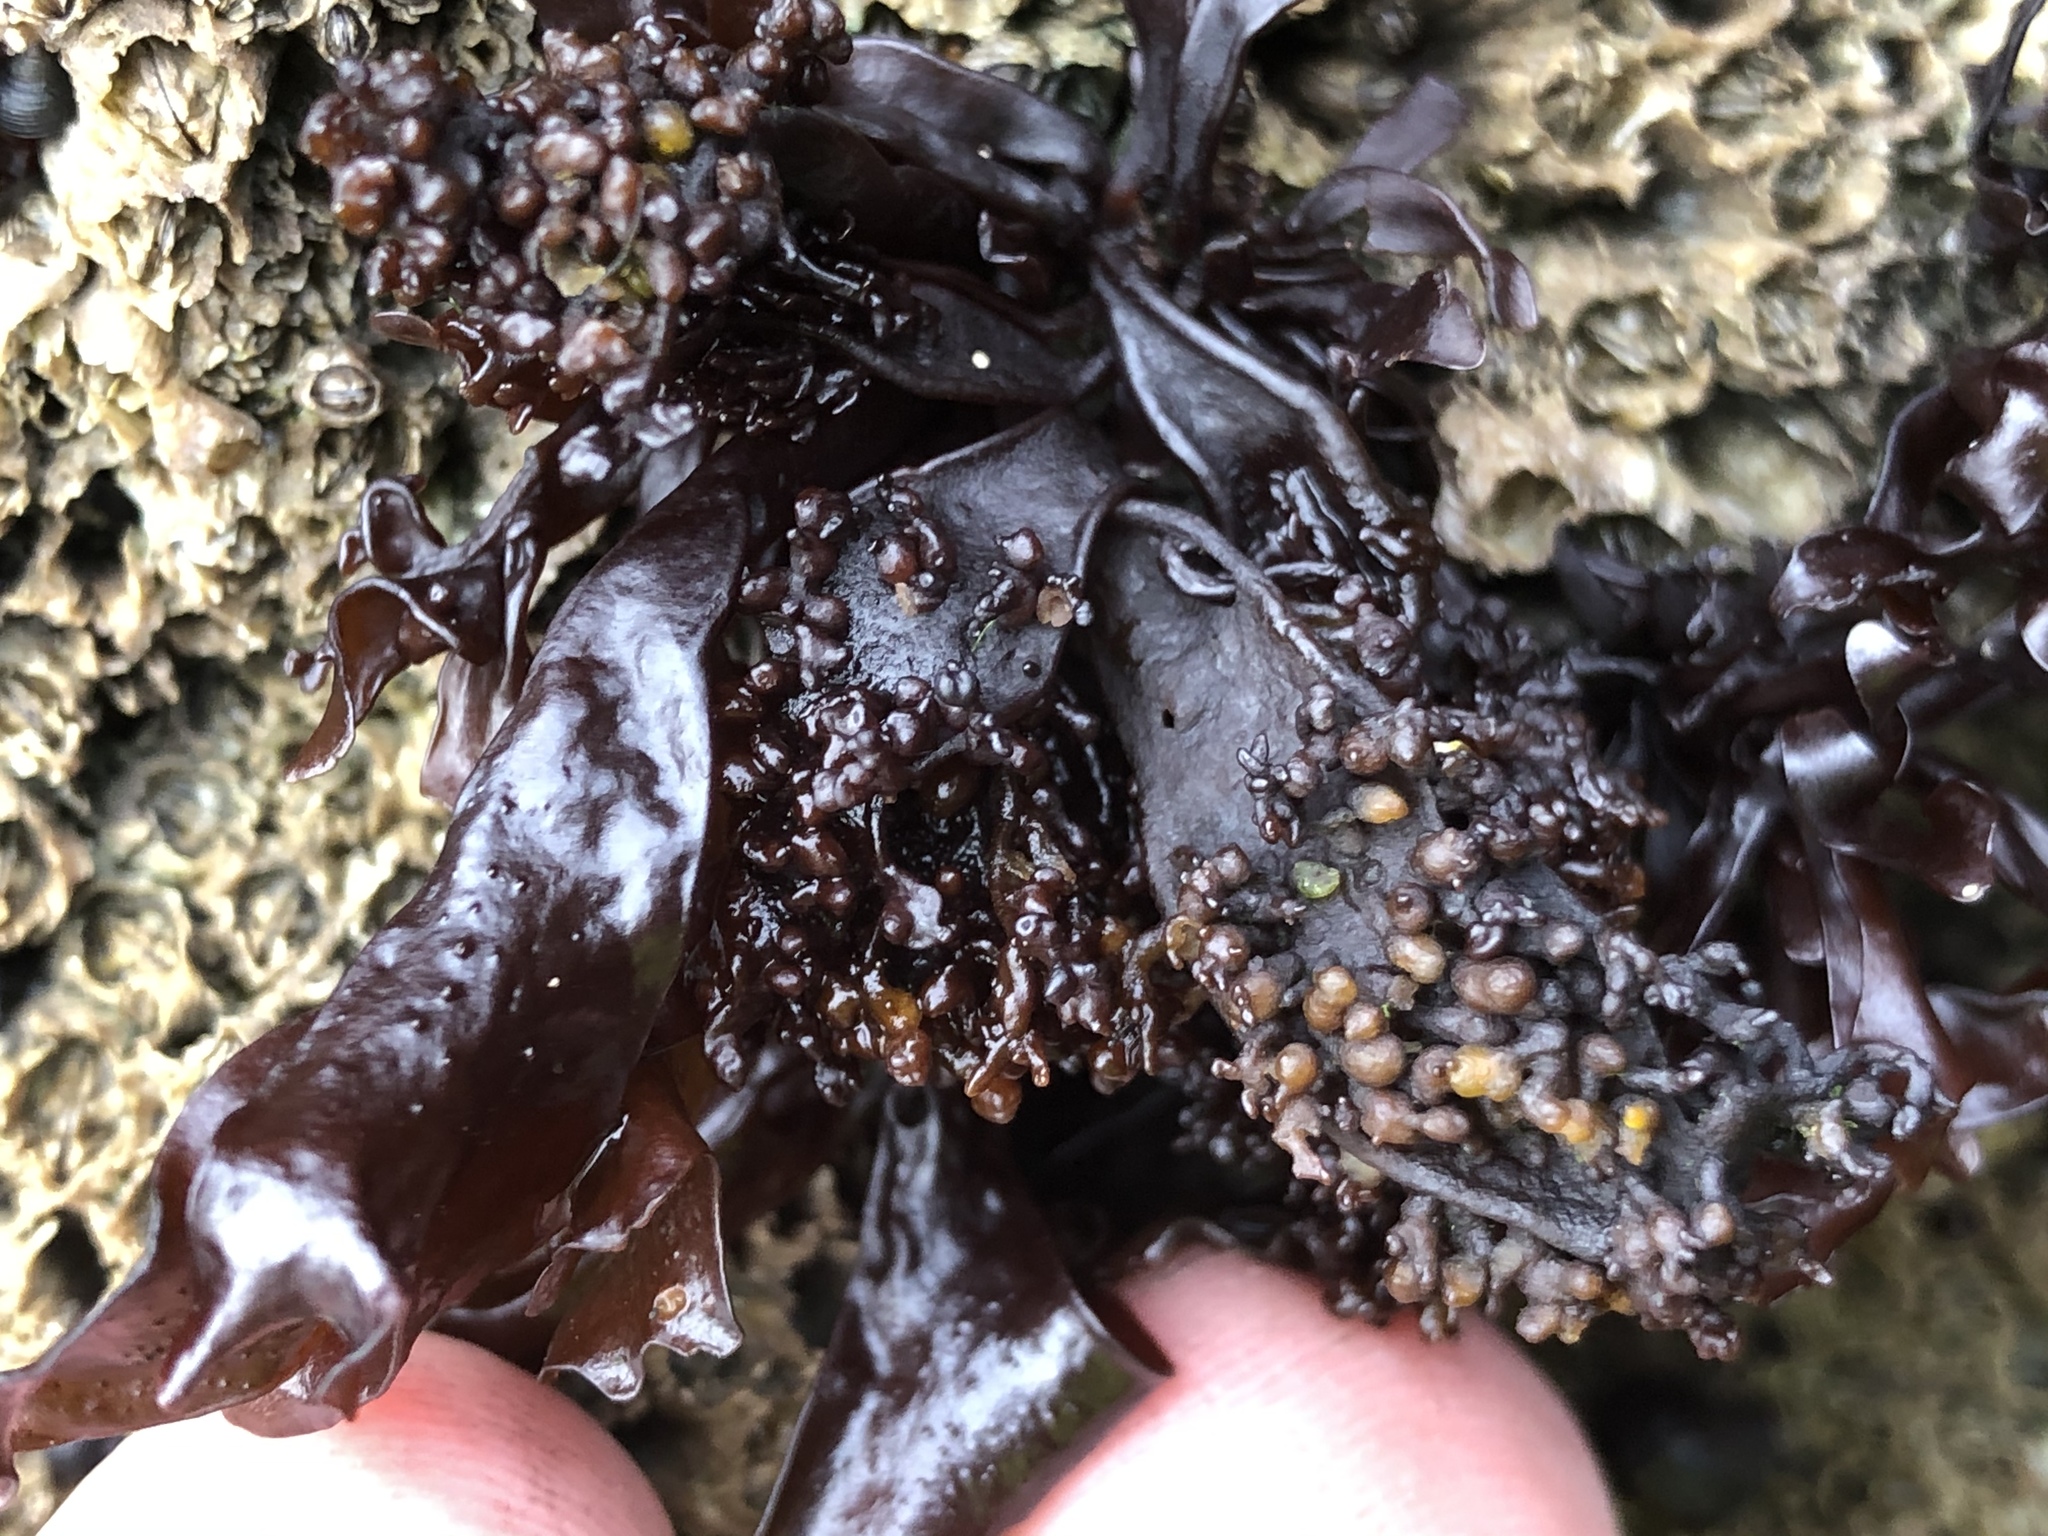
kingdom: Plantae
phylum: Rhodophyta
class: Florideophyceae
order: Gigartinales
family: Phyllophoraceae
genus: Mastocarpus
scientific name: Mastocarpus papillatus
